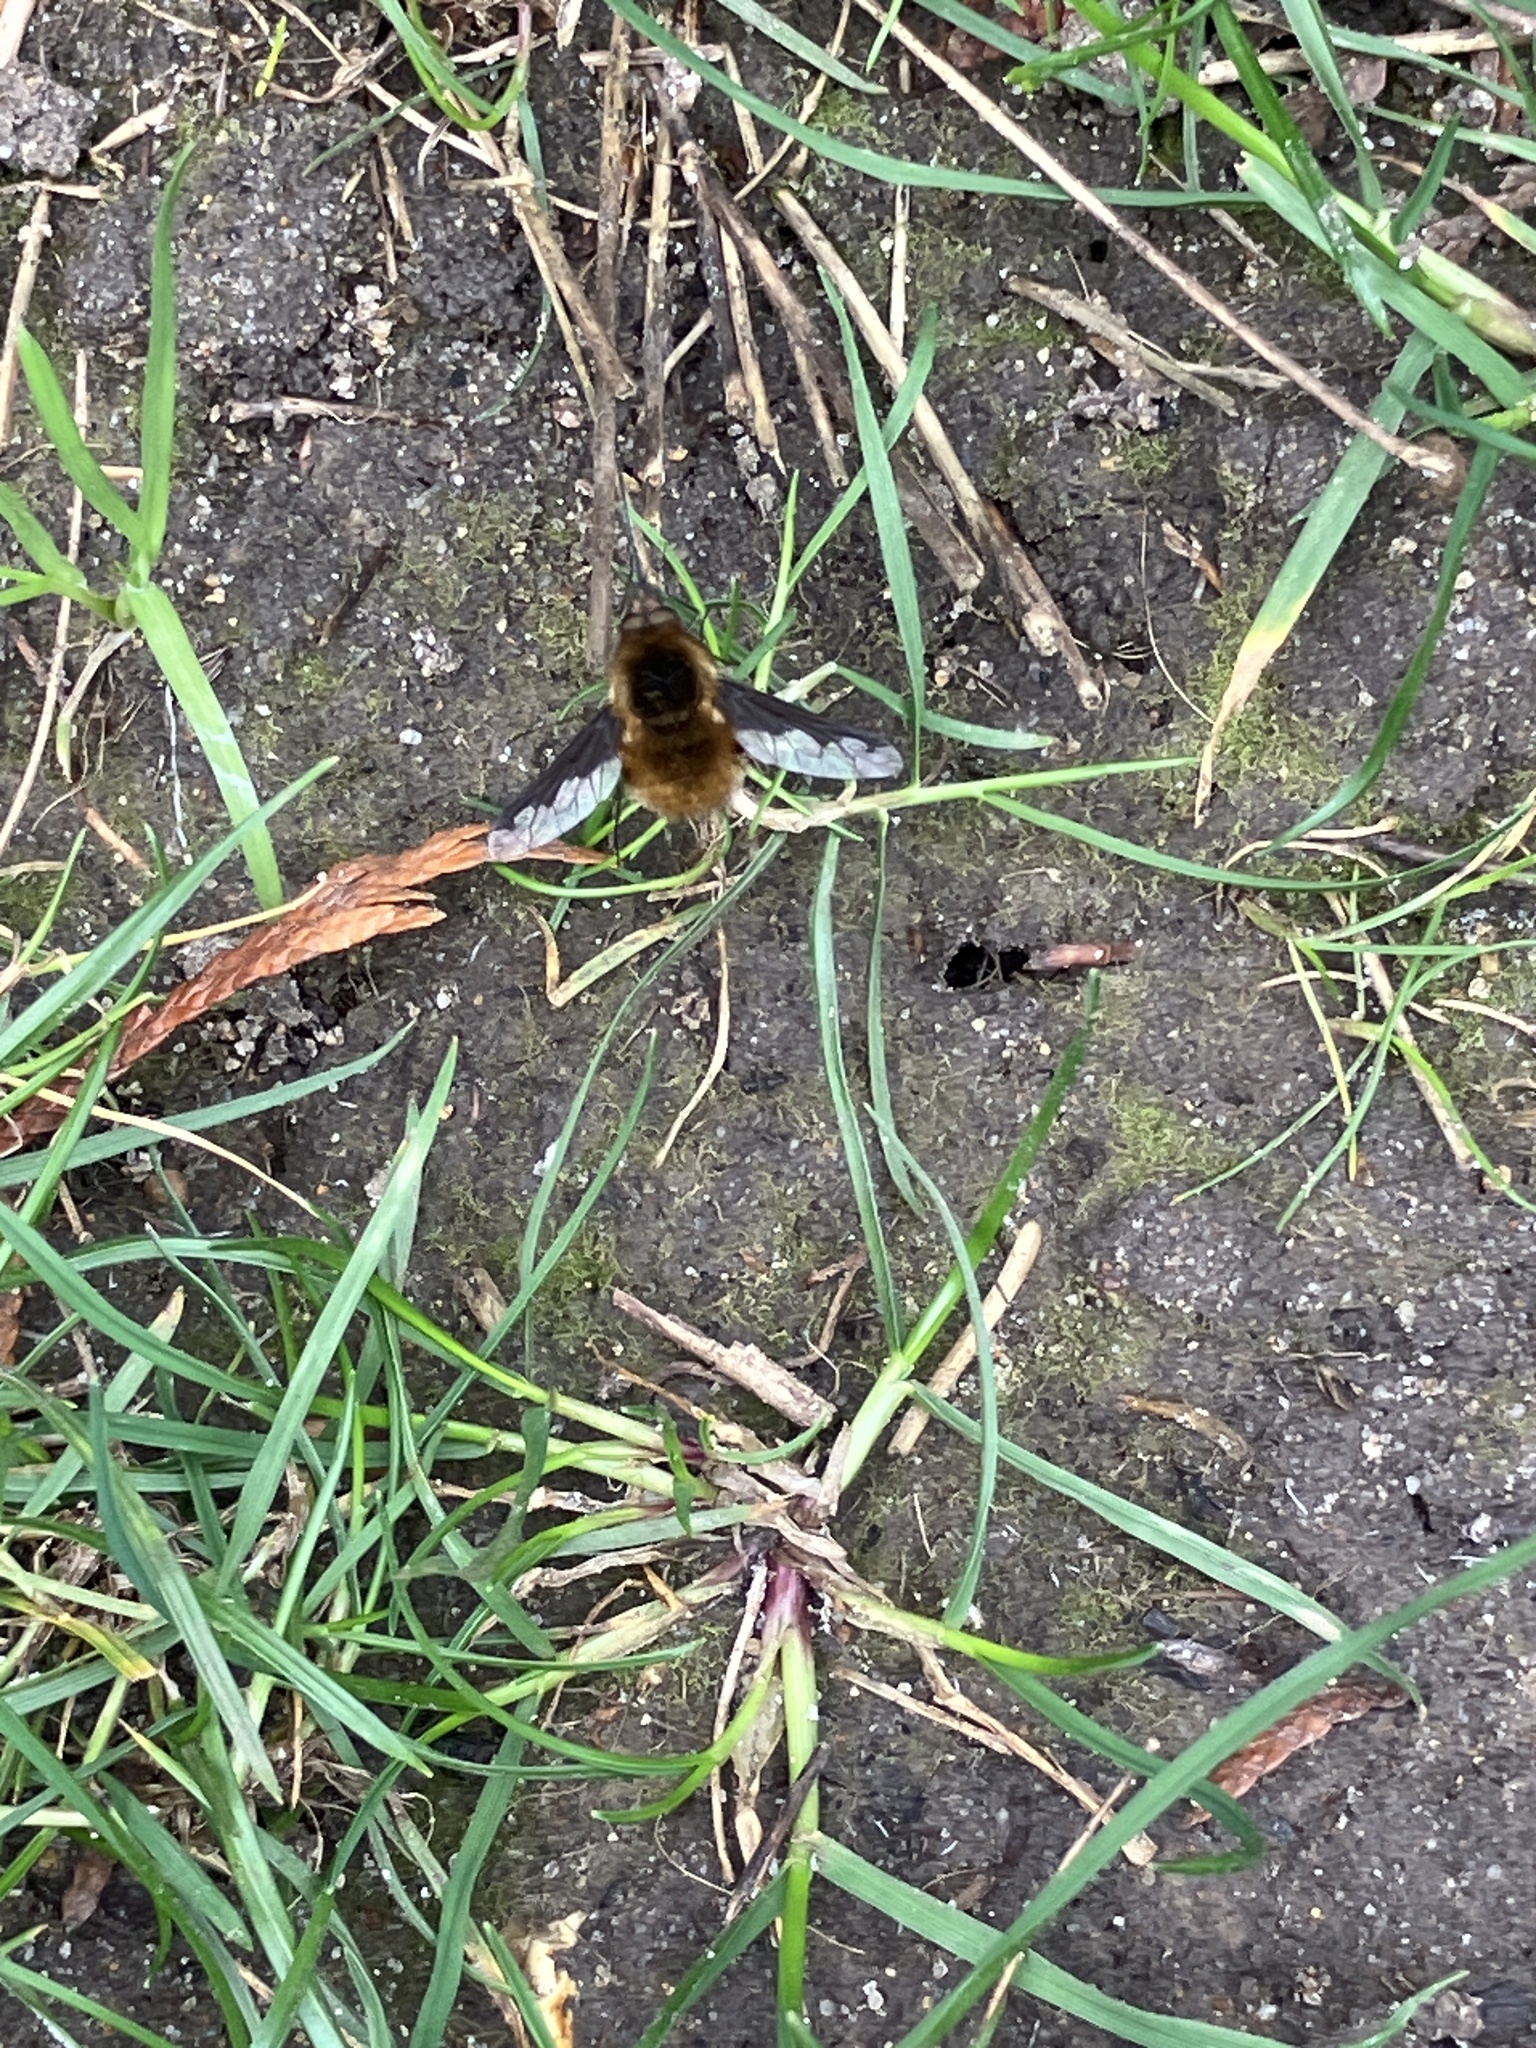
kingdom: Animalia
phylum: Arthropoda
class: Insecta
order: Diptera
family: Bombyliidae
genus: Bombylius
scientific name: Bombylius major
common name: Bee fly
